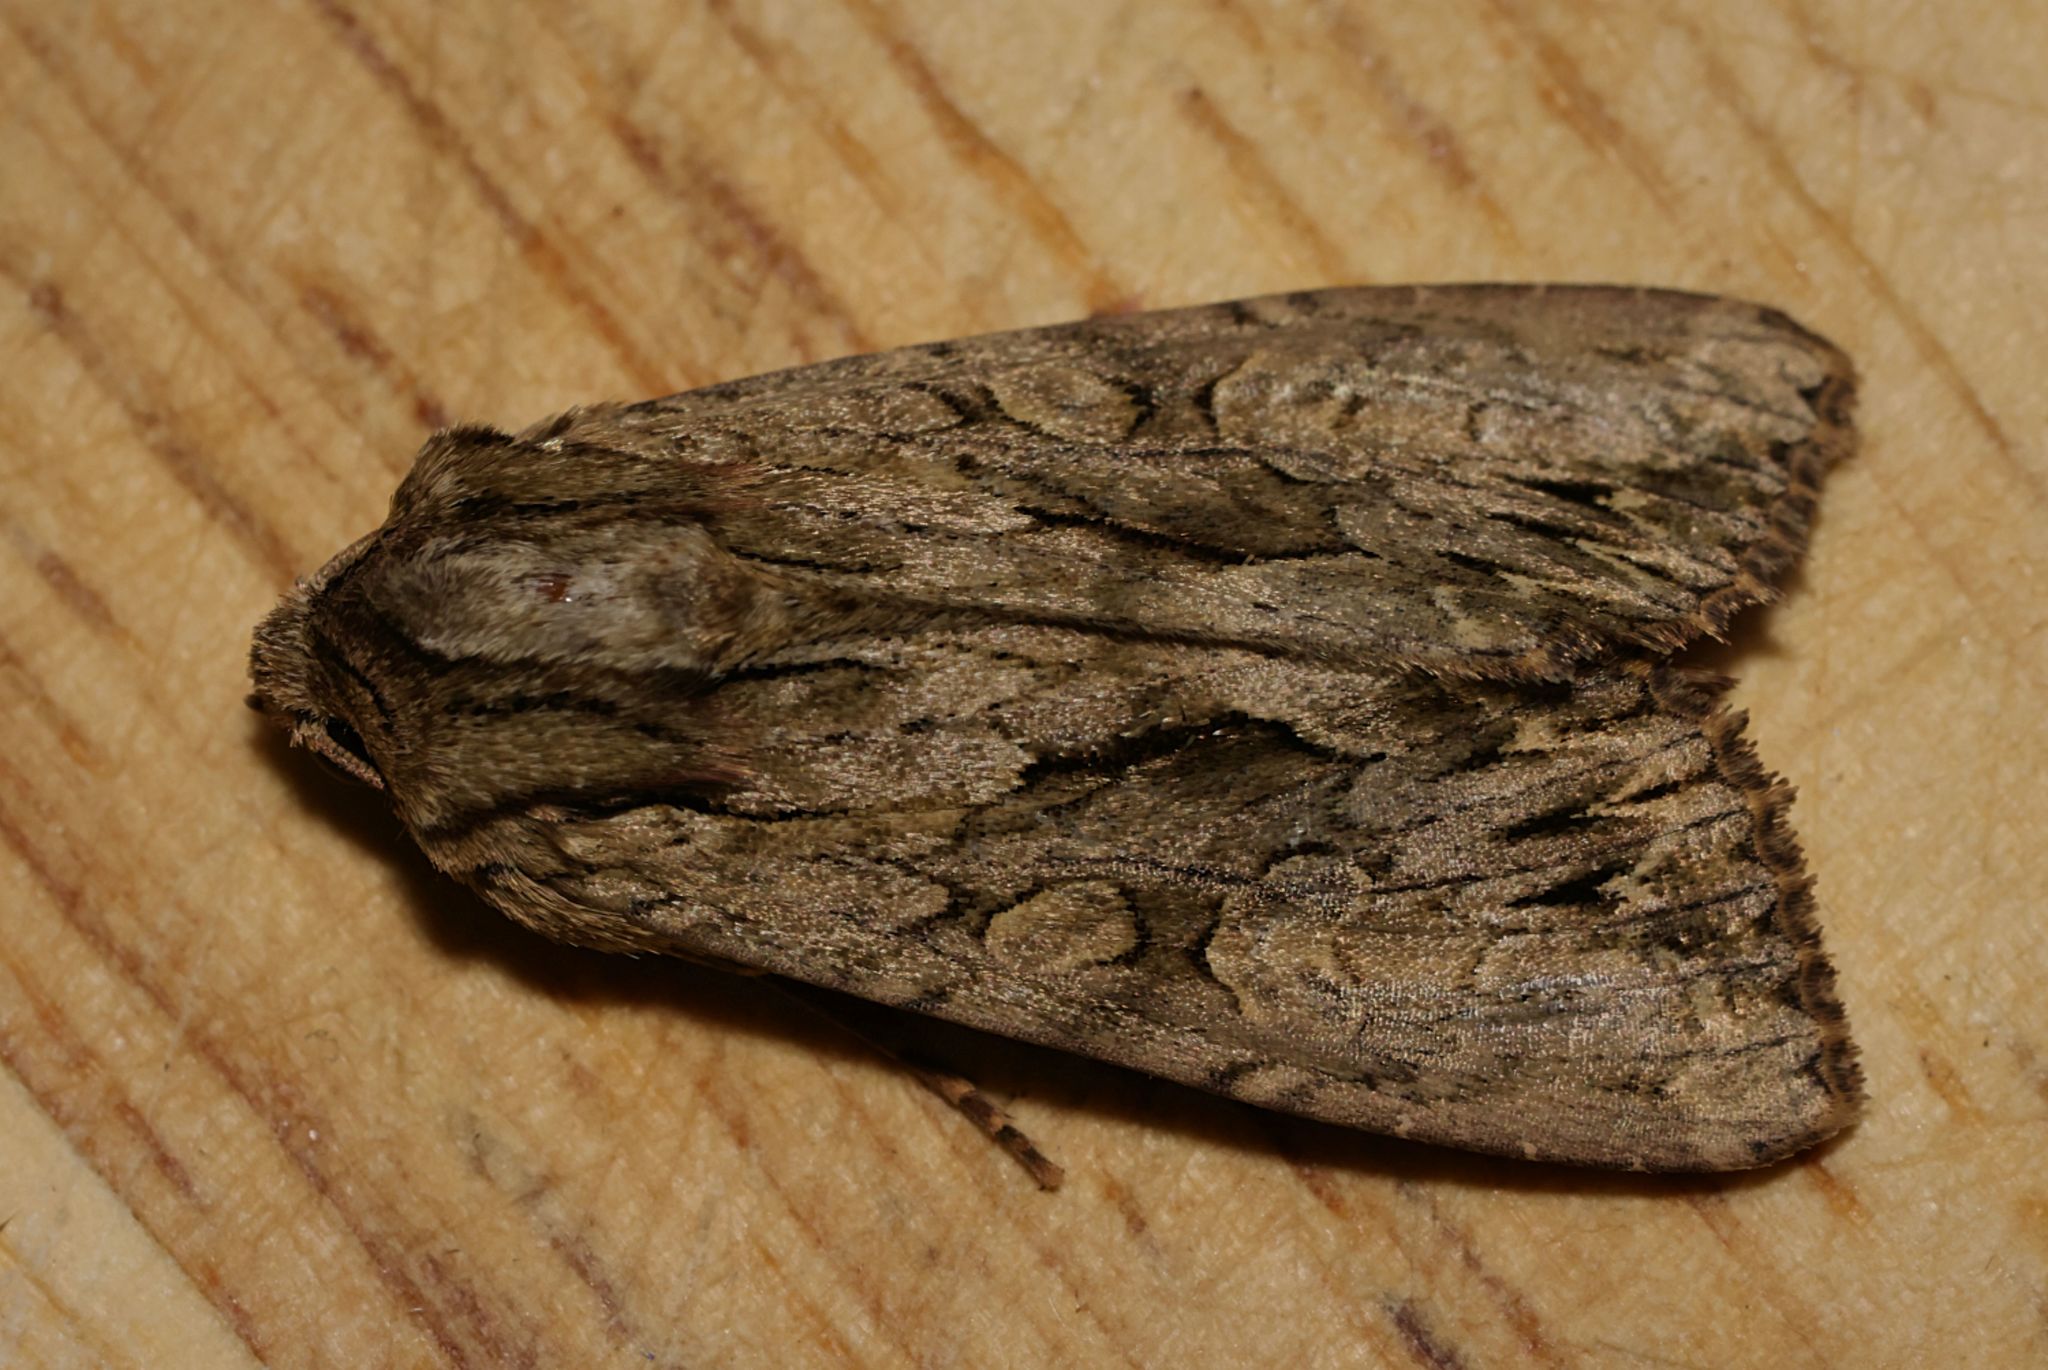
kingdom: Animalia
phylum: Arthropoda
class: Insecta
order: Lepidoptera
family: Noctuidae
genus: Apamea
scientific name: Apamea monoglypha
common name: Dark arches
